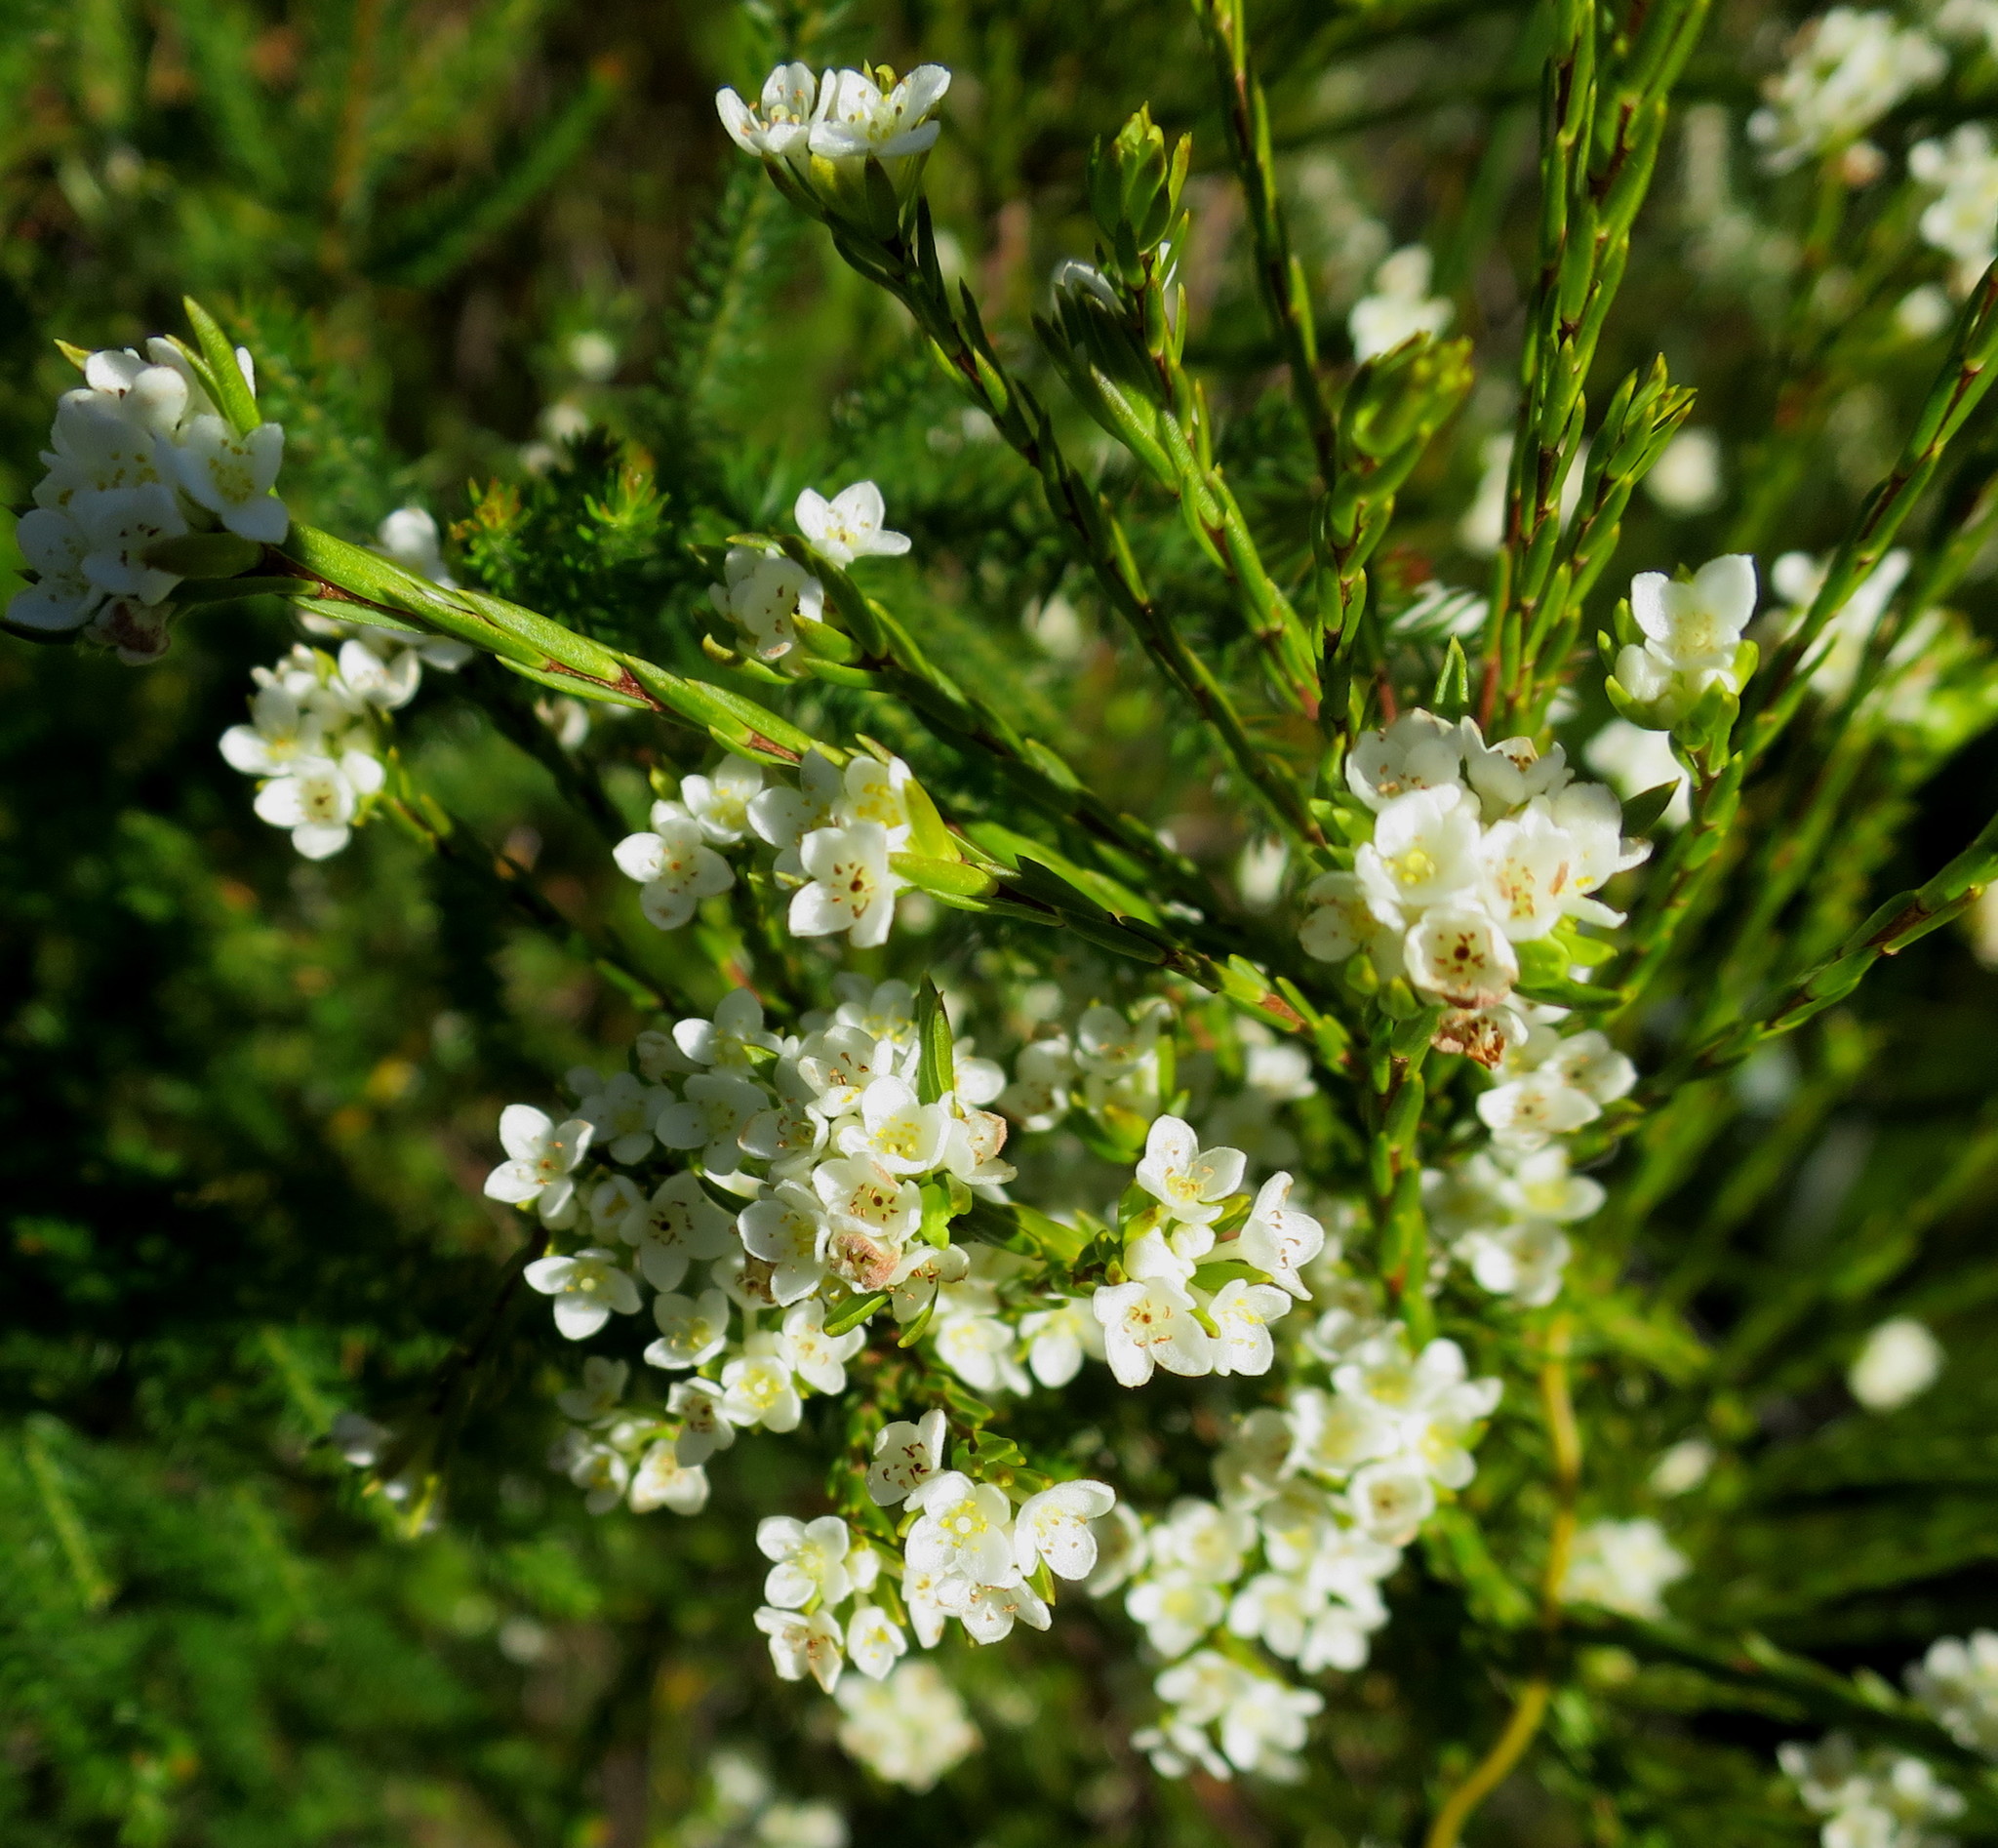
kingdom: Plantae
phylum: Tracheophyta
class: Magnoliopsida
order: Malvales
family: Thymelaeaceae
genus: Lachnaea
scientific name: Lachnaea diosmoides
